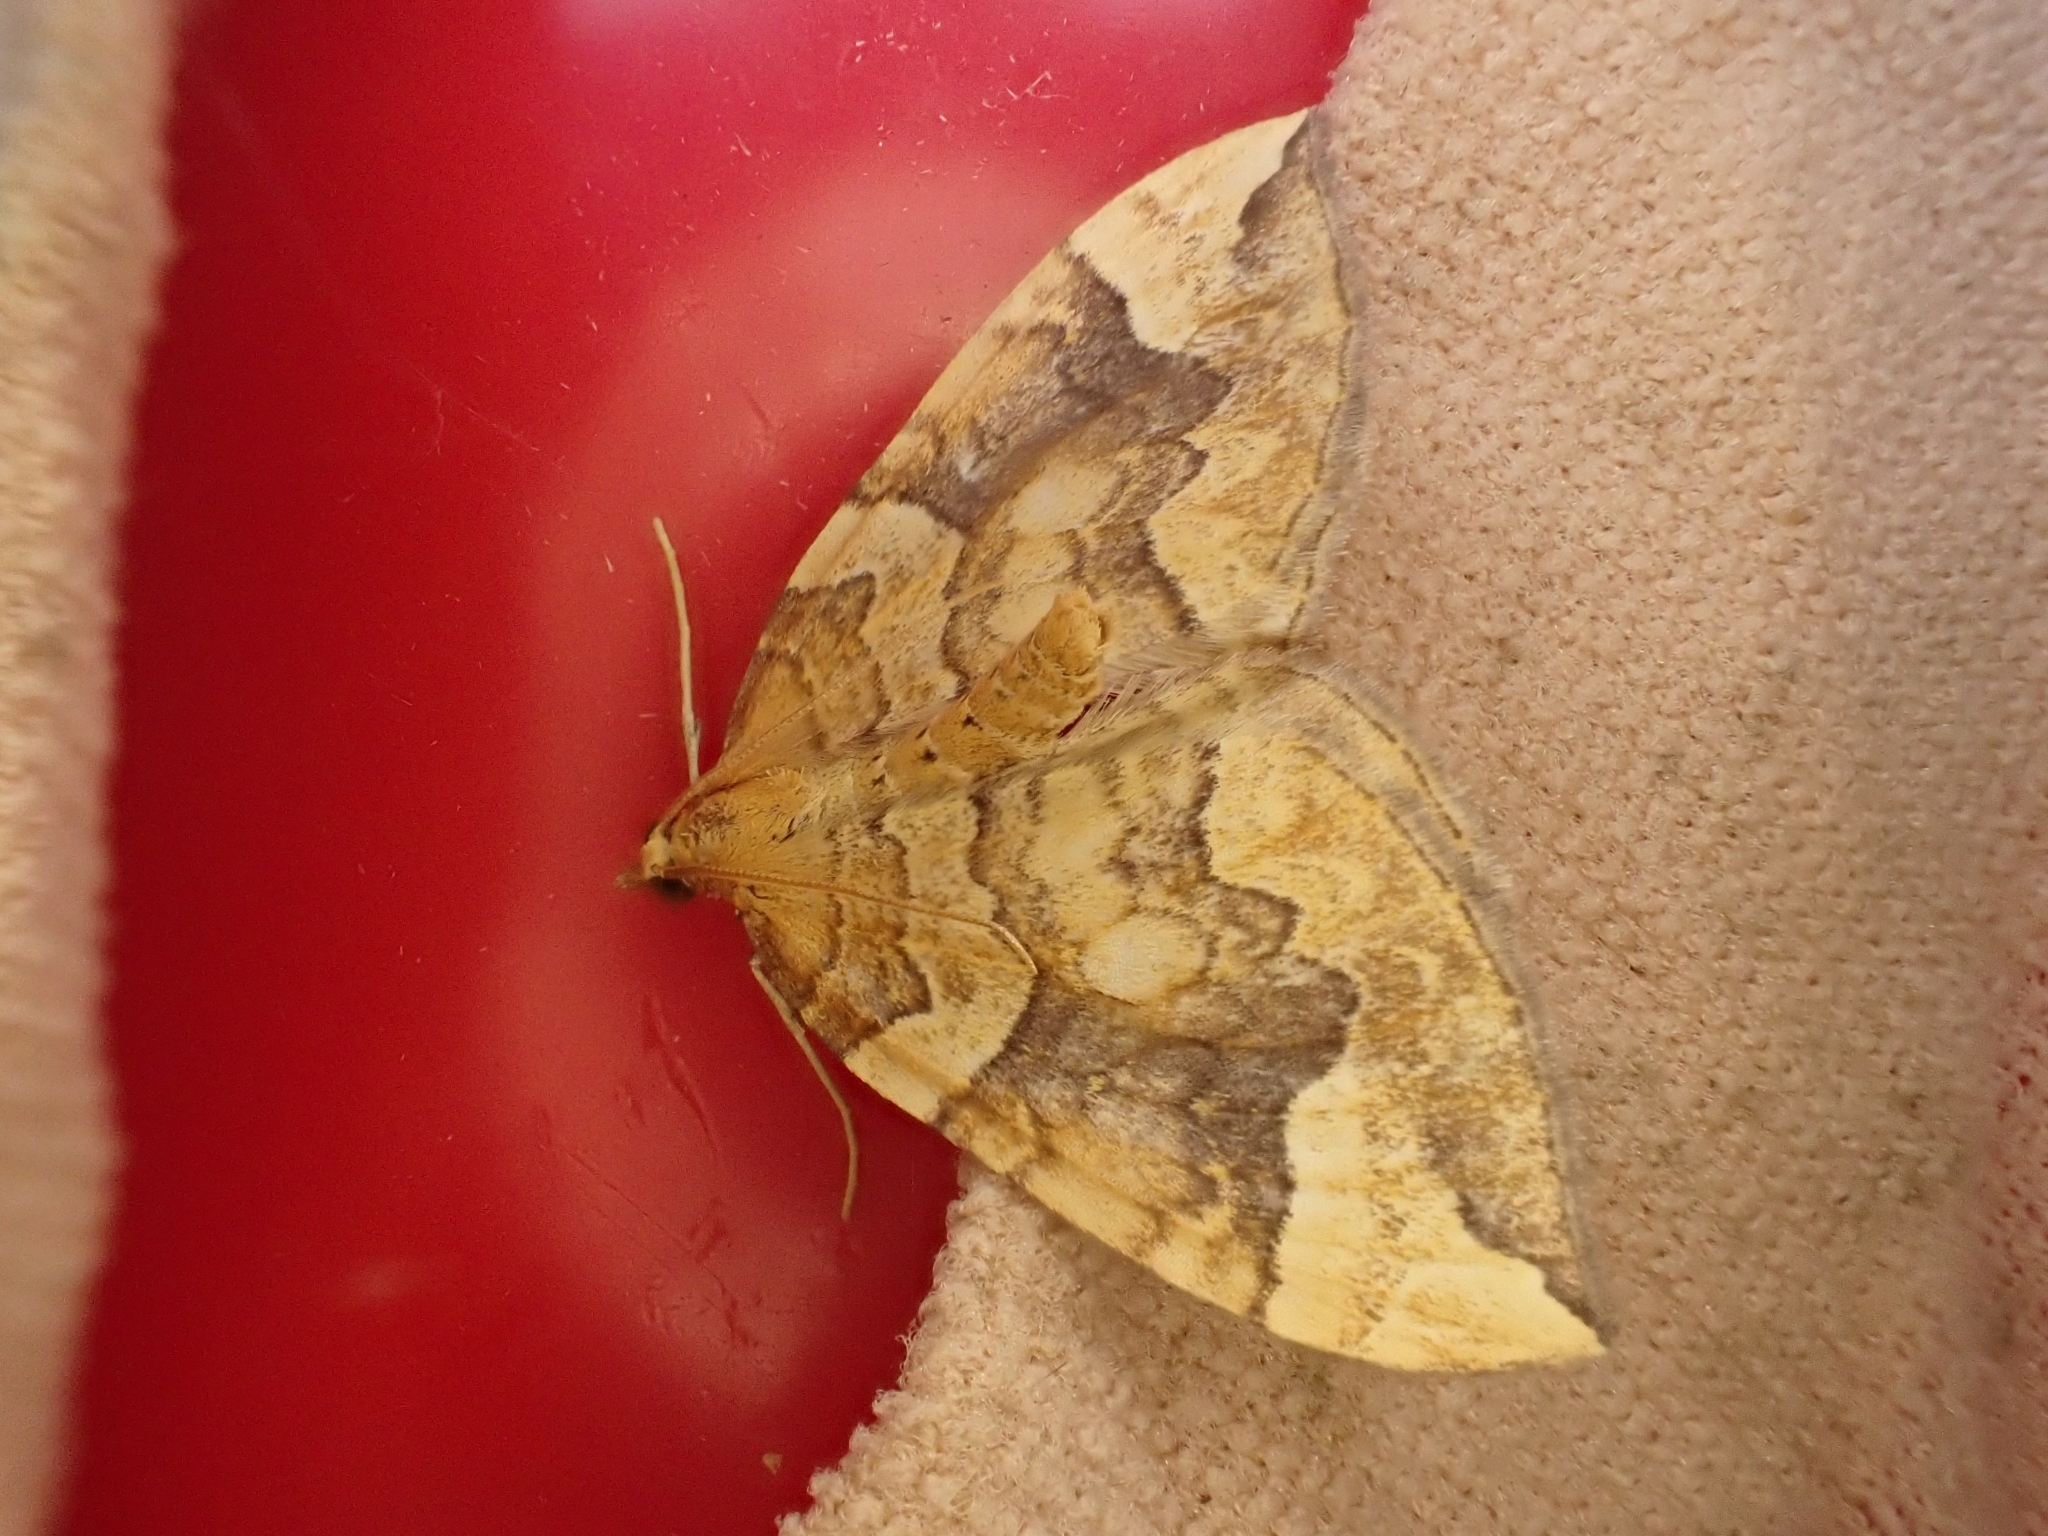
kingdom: Animalia
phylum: Arthropoda
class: Insecta
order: Lepidoptera
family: Geometridae
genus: Eulithis
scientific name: Eulithis populata
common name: Northern spinach
